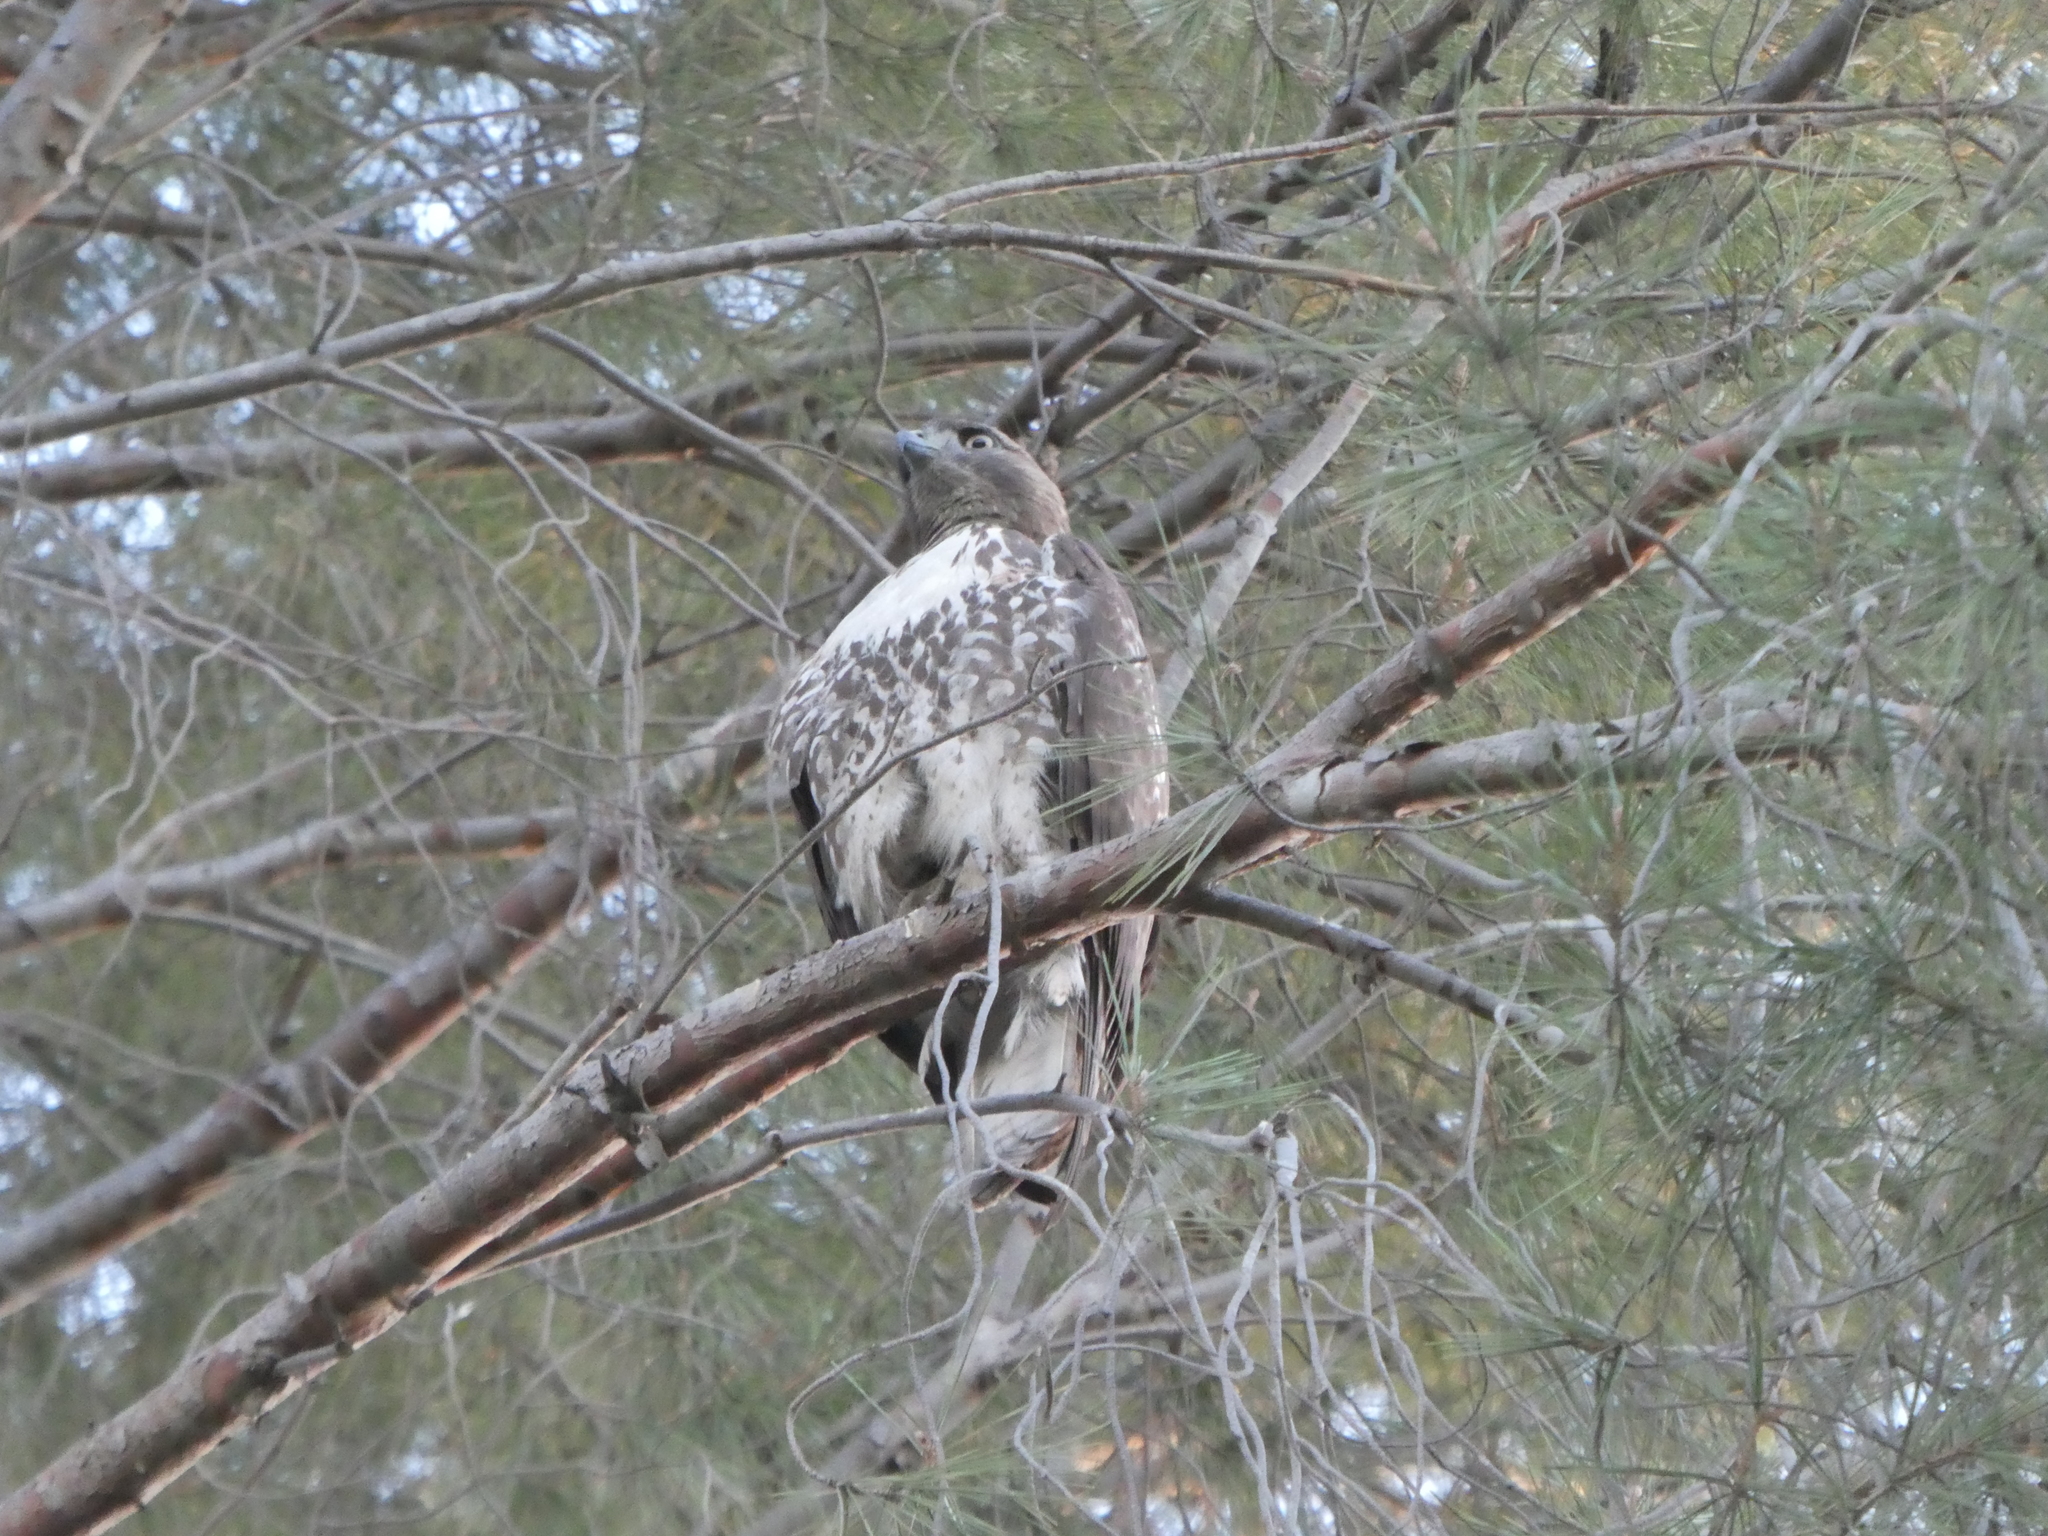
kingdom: Animalia
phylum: Chordata
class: Aves
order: Accipitriformes
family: Accipitridae
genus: Buteo
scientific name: Buteo jamaicensis
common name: Red-tailed hawk
